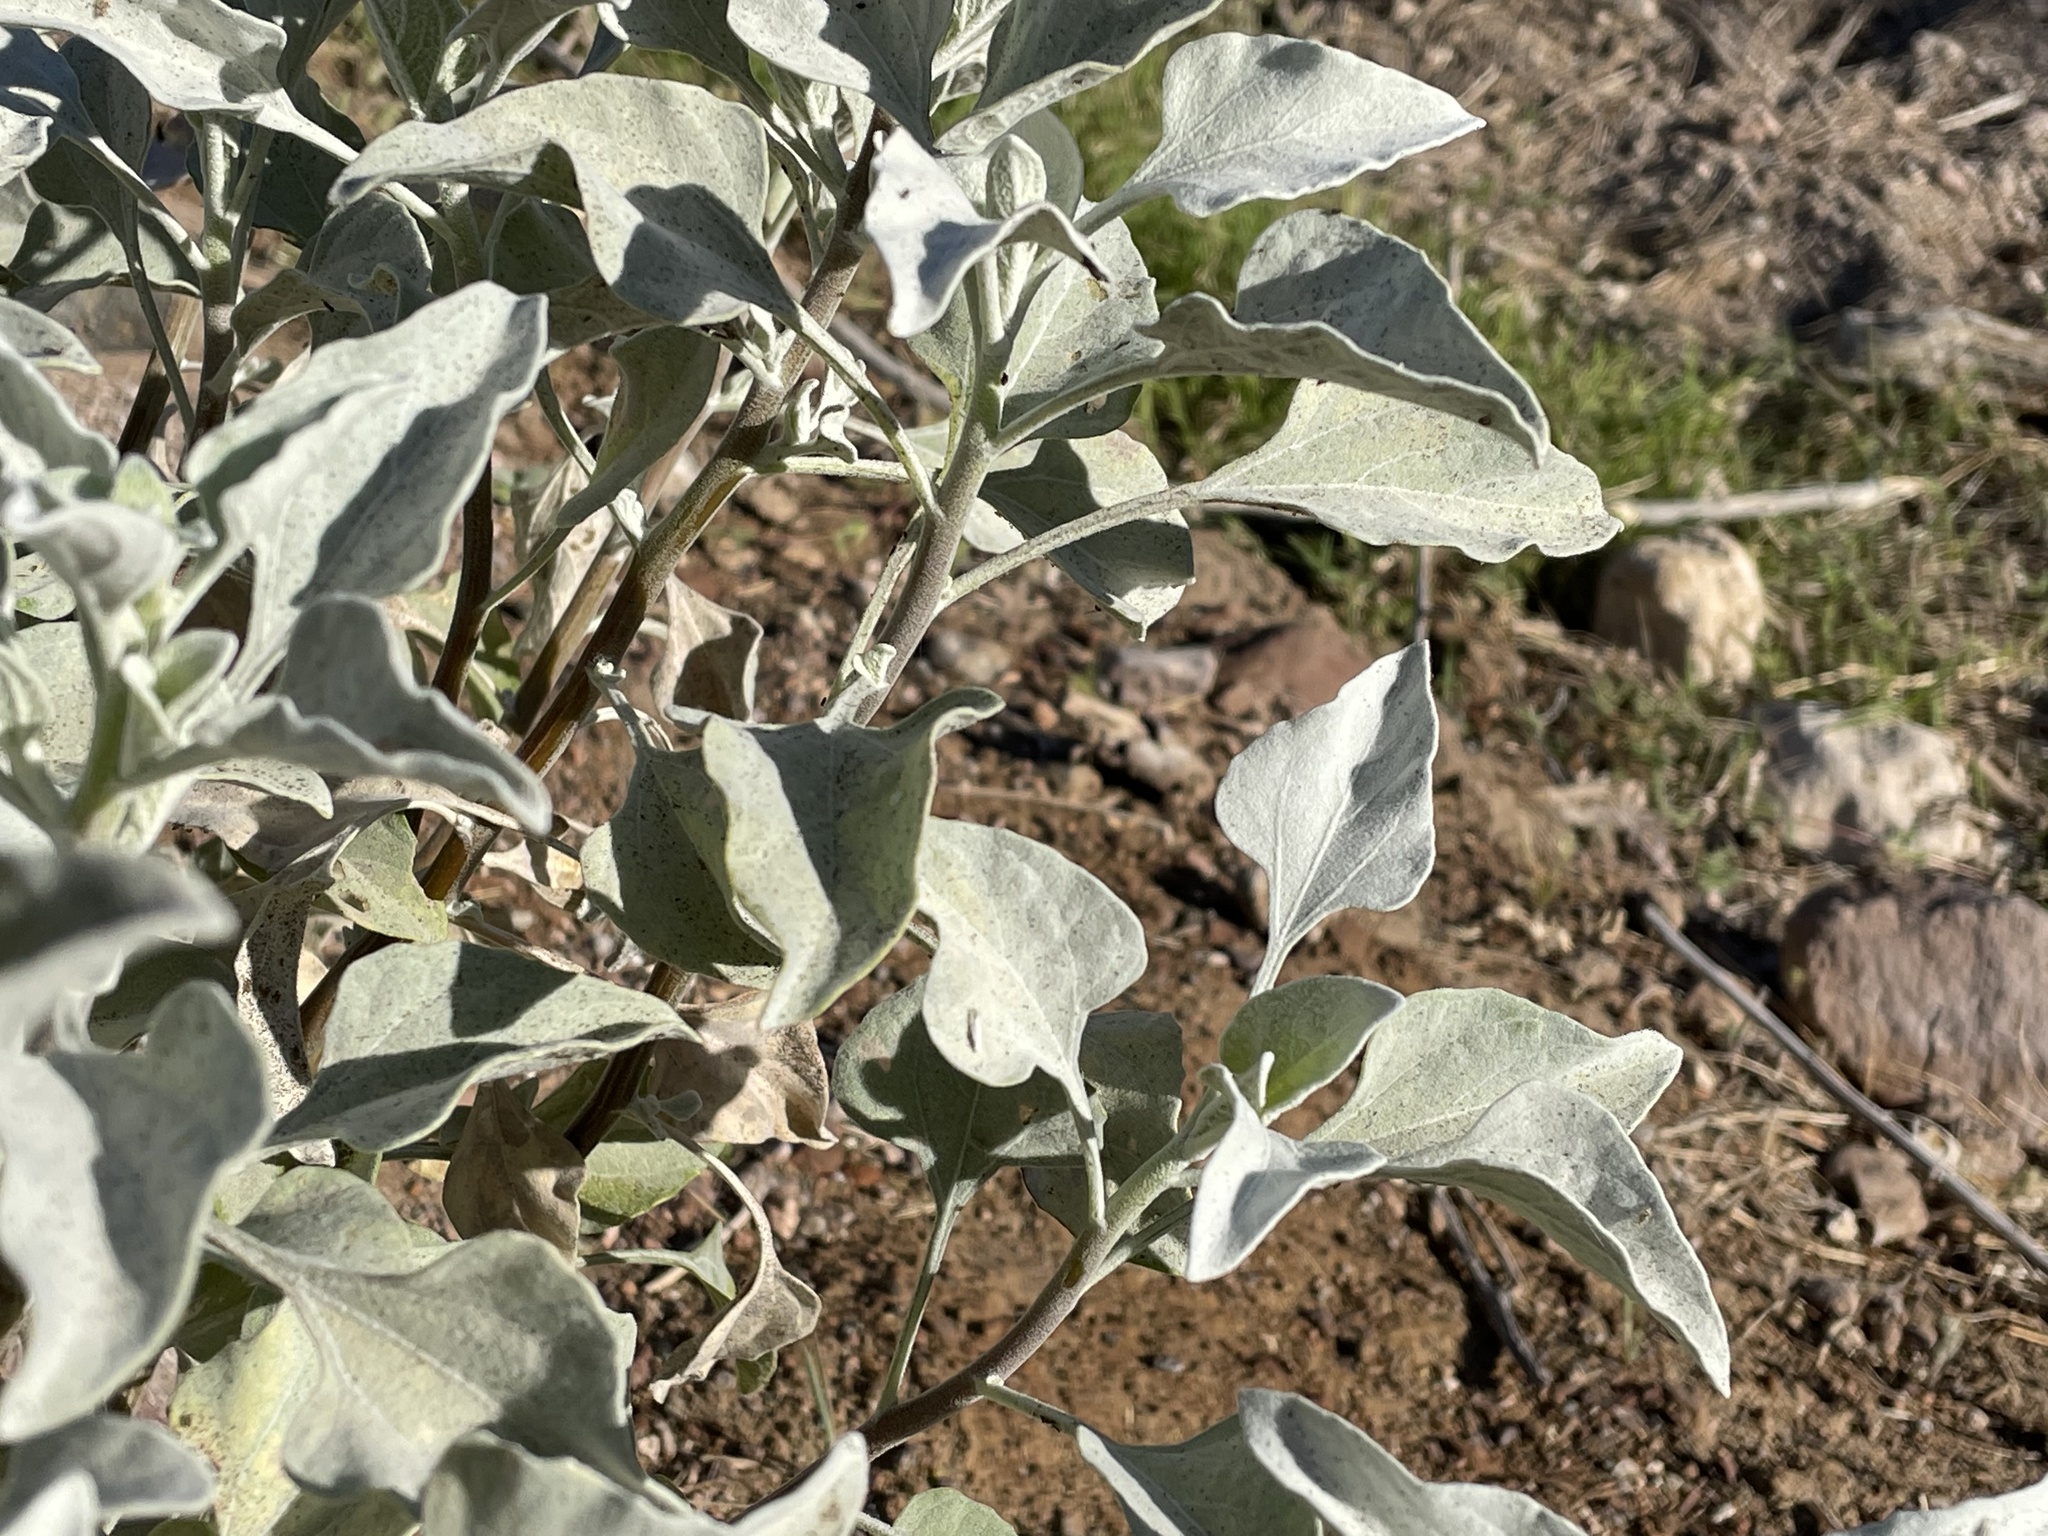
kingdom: Plantae
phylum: Tracheophyta
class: Magnoliopsida
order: Asterales
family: Asteraceae
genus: Encelia
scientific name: Encelia farinosa
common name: Brittlebush
